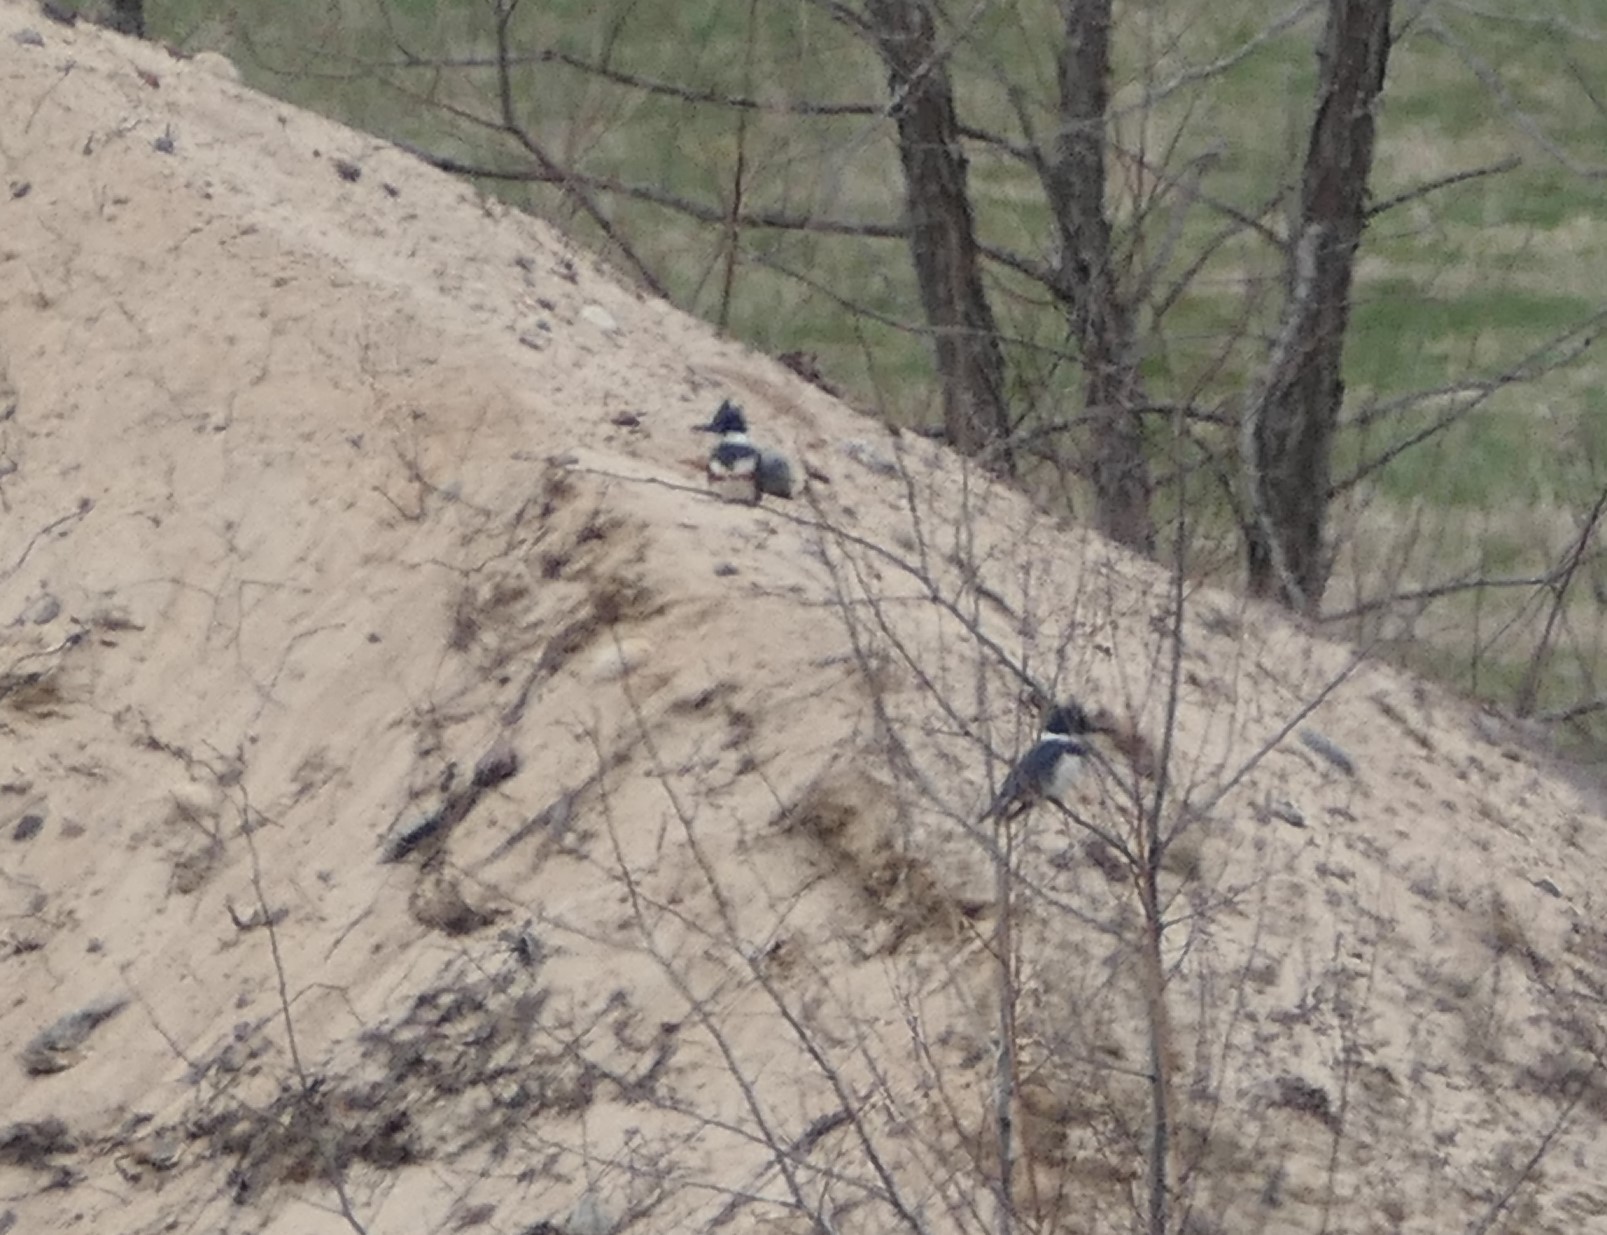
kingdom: Animalia
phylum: Chordata
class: Aves
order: Coraciiformes
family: Alcedinidae
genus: Megaceryle
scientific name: Megaceryle alcyon
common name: Belted kingfisher
